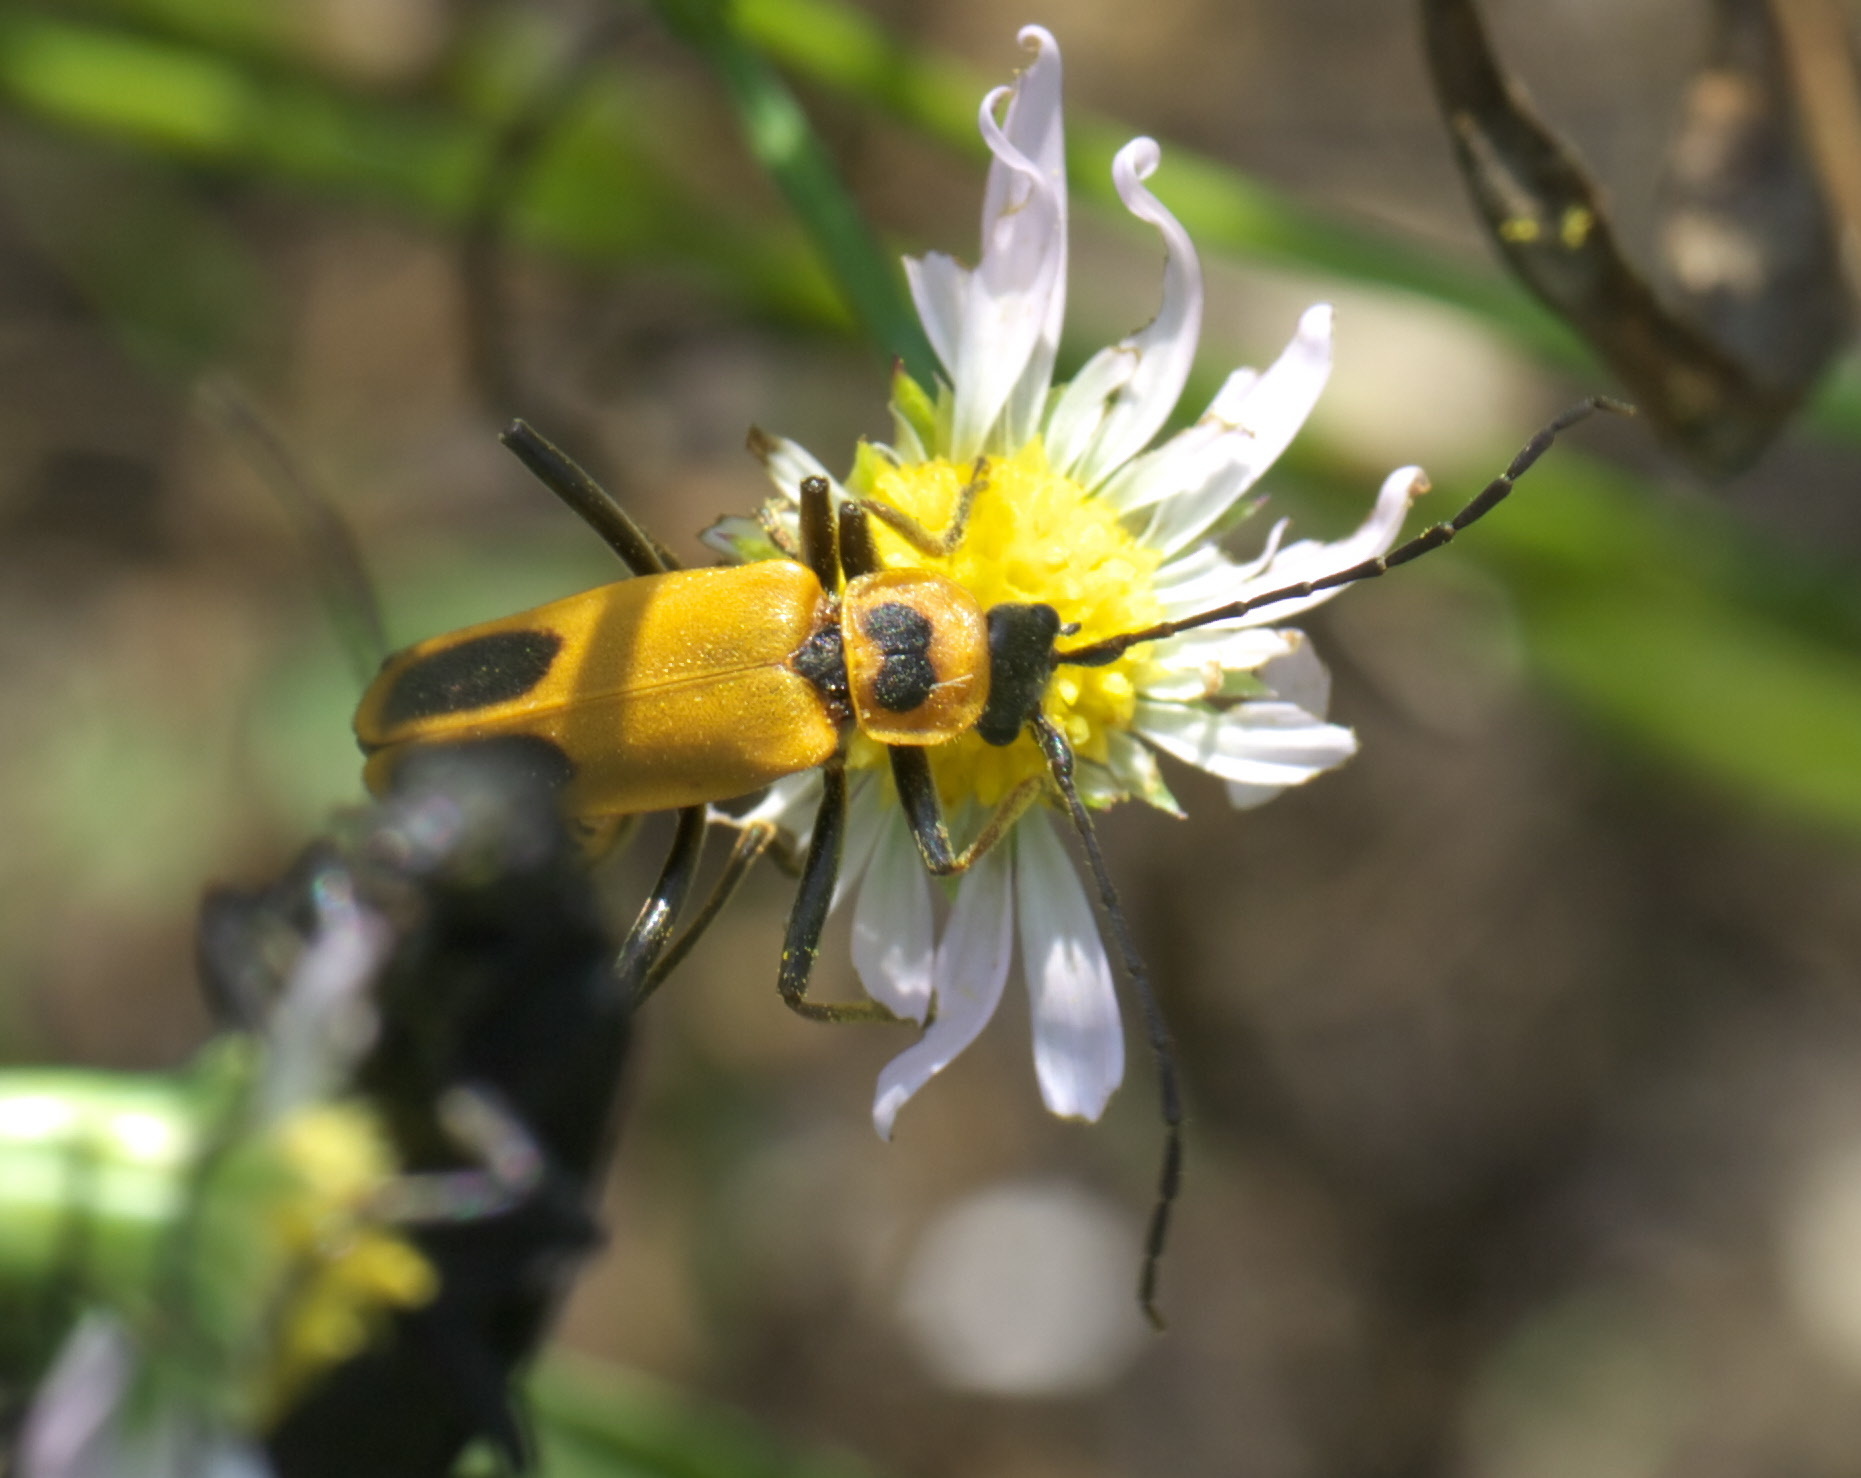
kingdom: Animalia
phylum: Arthropoda
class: Insecta
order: Coleoptera
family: Cantharidae
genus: Chauliognathus
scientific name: Chauliognathus pensylvanicus
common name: Goldenrod soldier beetle
